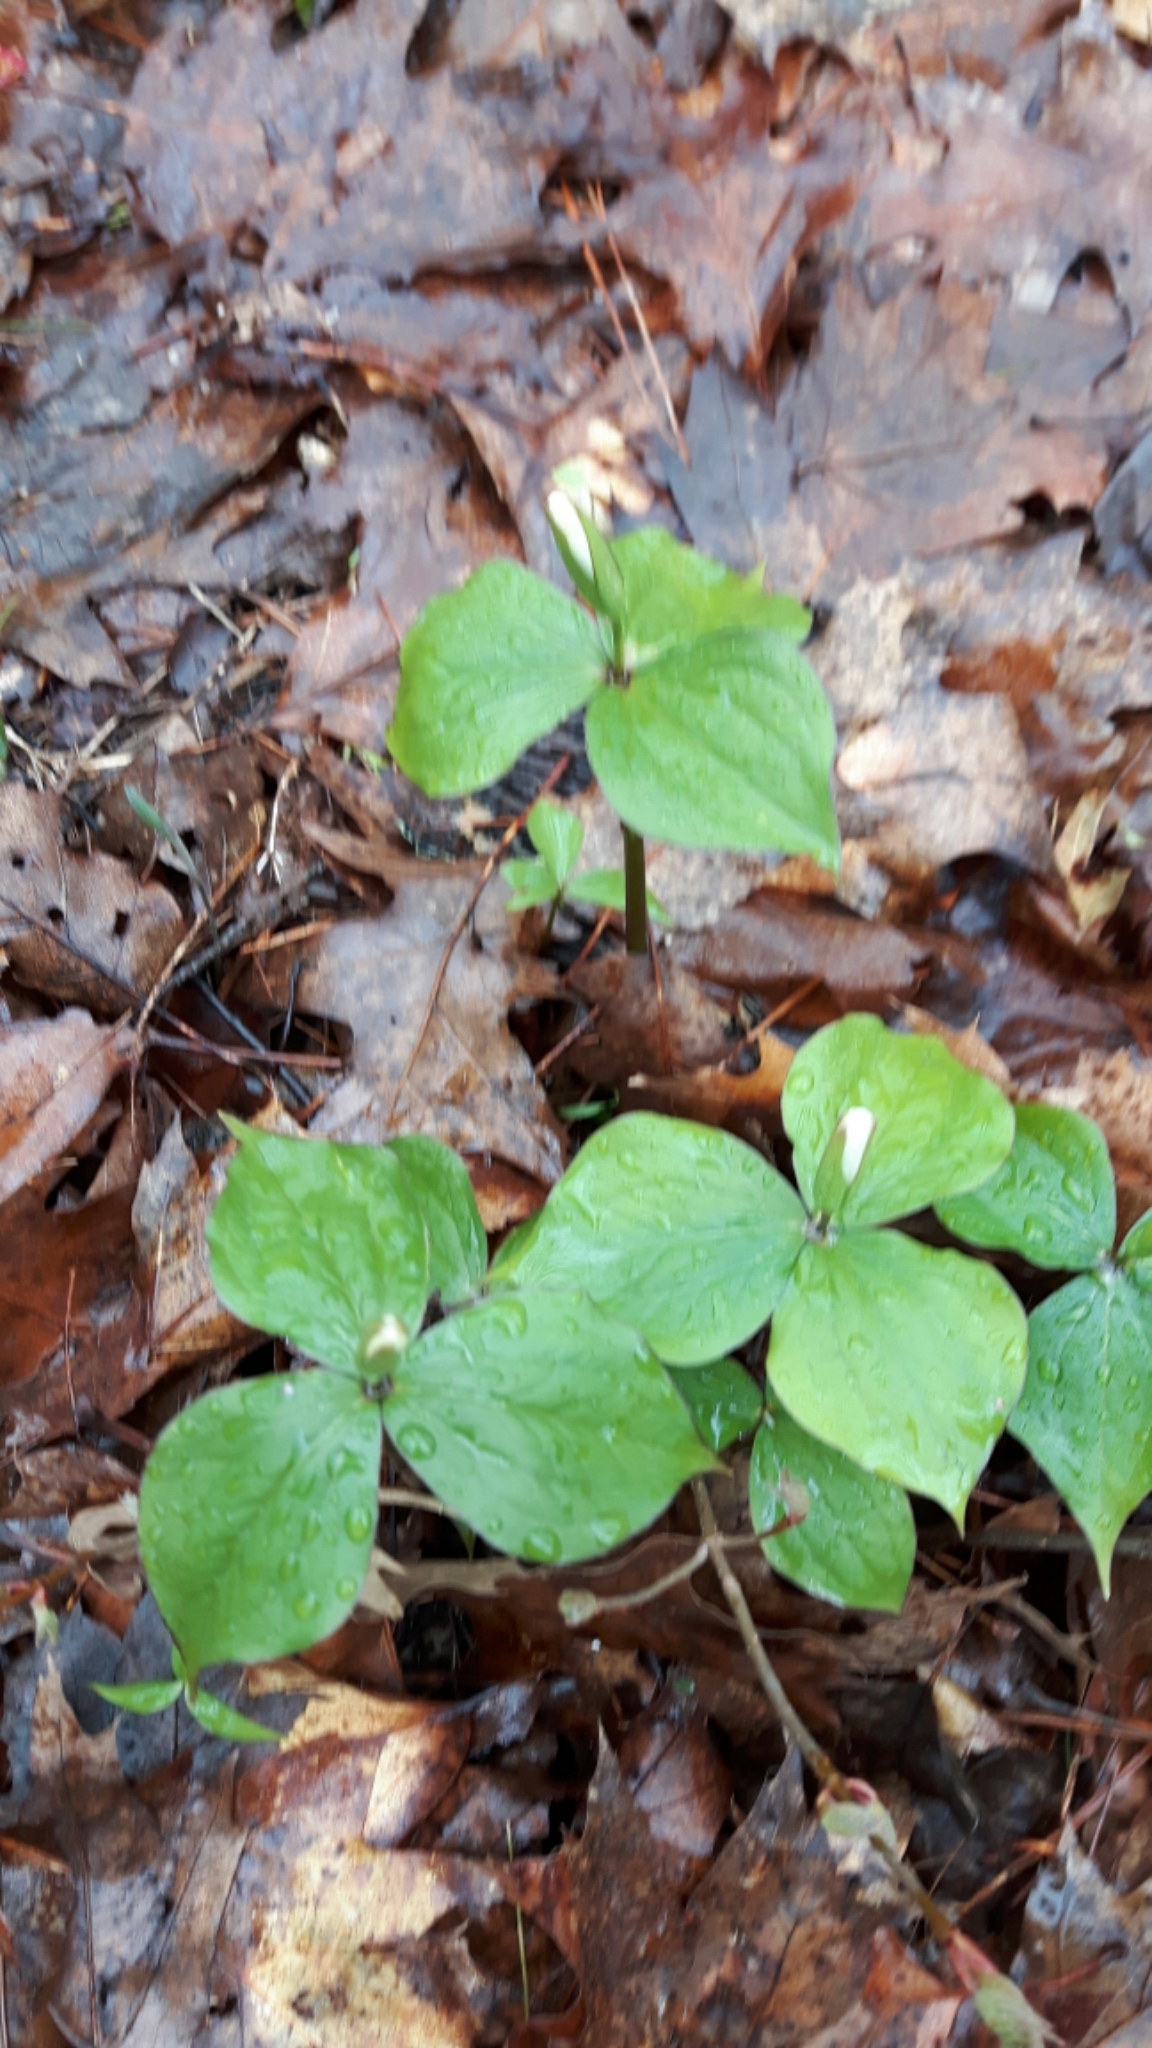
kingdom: Plantae
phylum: Tracheophyta
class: Liliopsida
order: Liliales
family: Melanthiaceae
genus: Trillium
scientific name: Trillium grandiflorum
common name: Great white trillium
